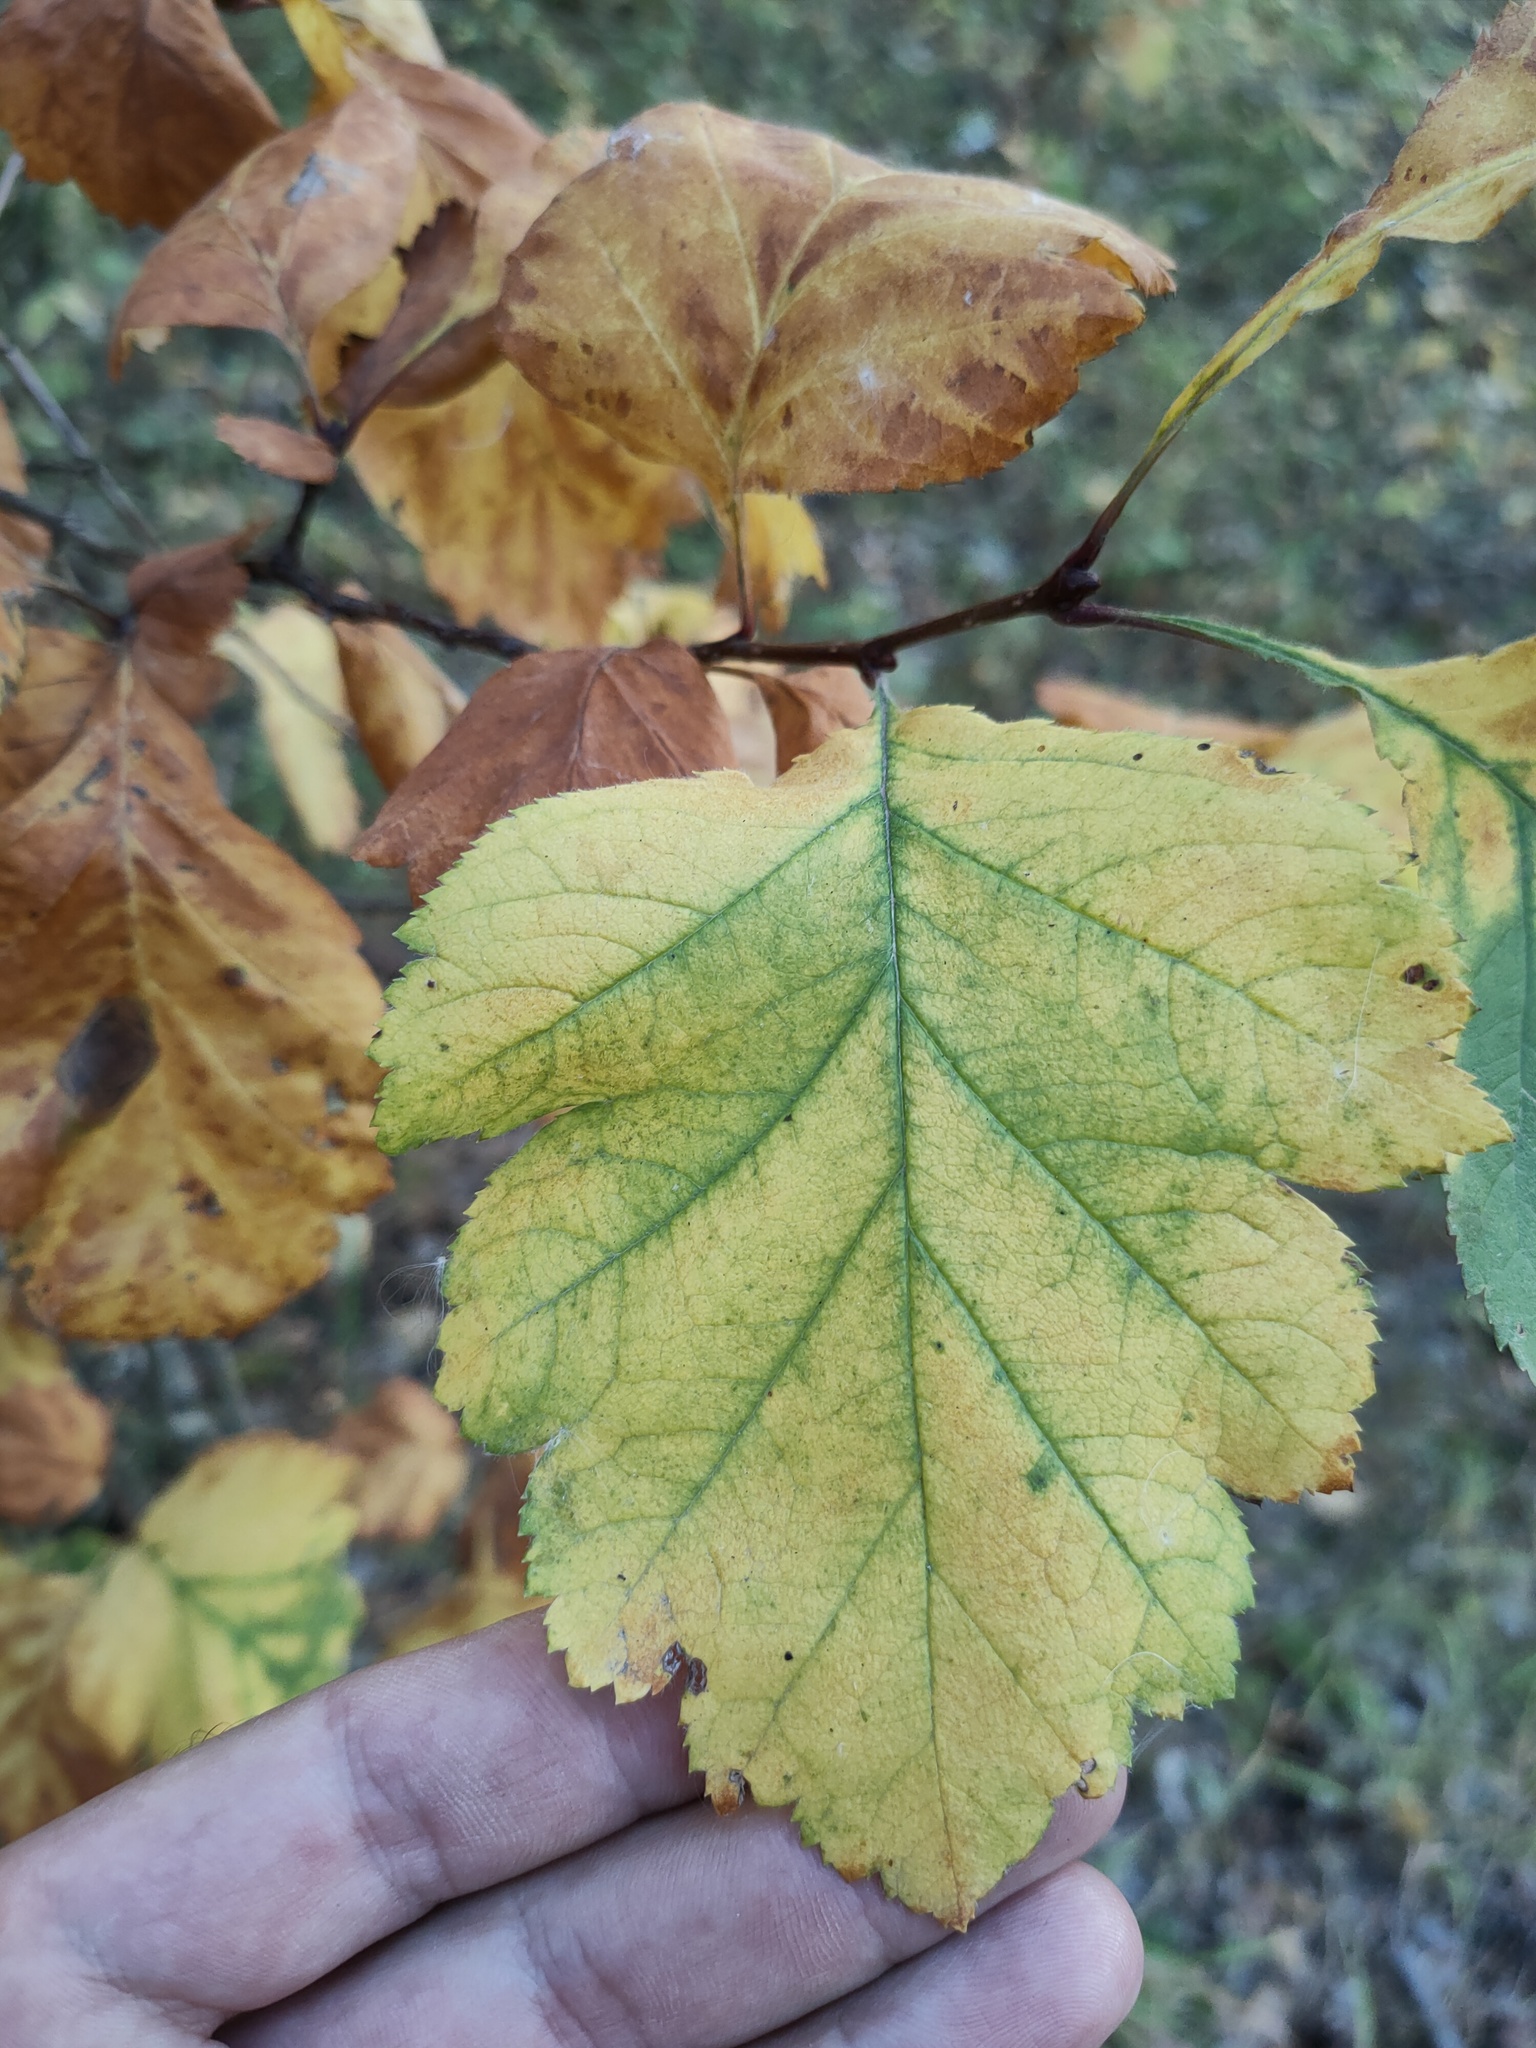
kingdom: Plantae
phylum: Tracheophyta
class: Magnoliopsida
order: Rosales
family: Rosaceae
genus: Crataegus
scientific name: Crataegus sanguinea
